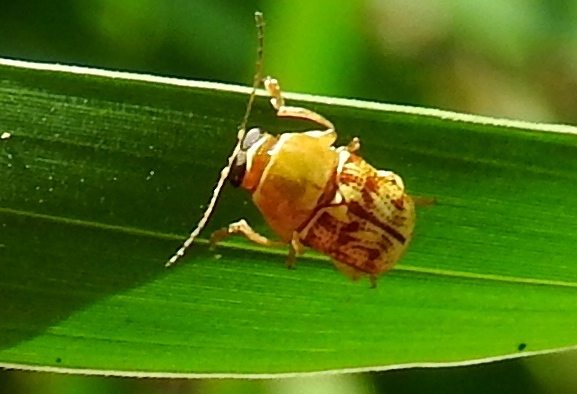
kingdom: Animalia
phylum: Arthropoda
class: Insecta
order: Coleoptera
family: Chrysomelidae
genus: Griburius
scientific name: Griburius puncturatus
